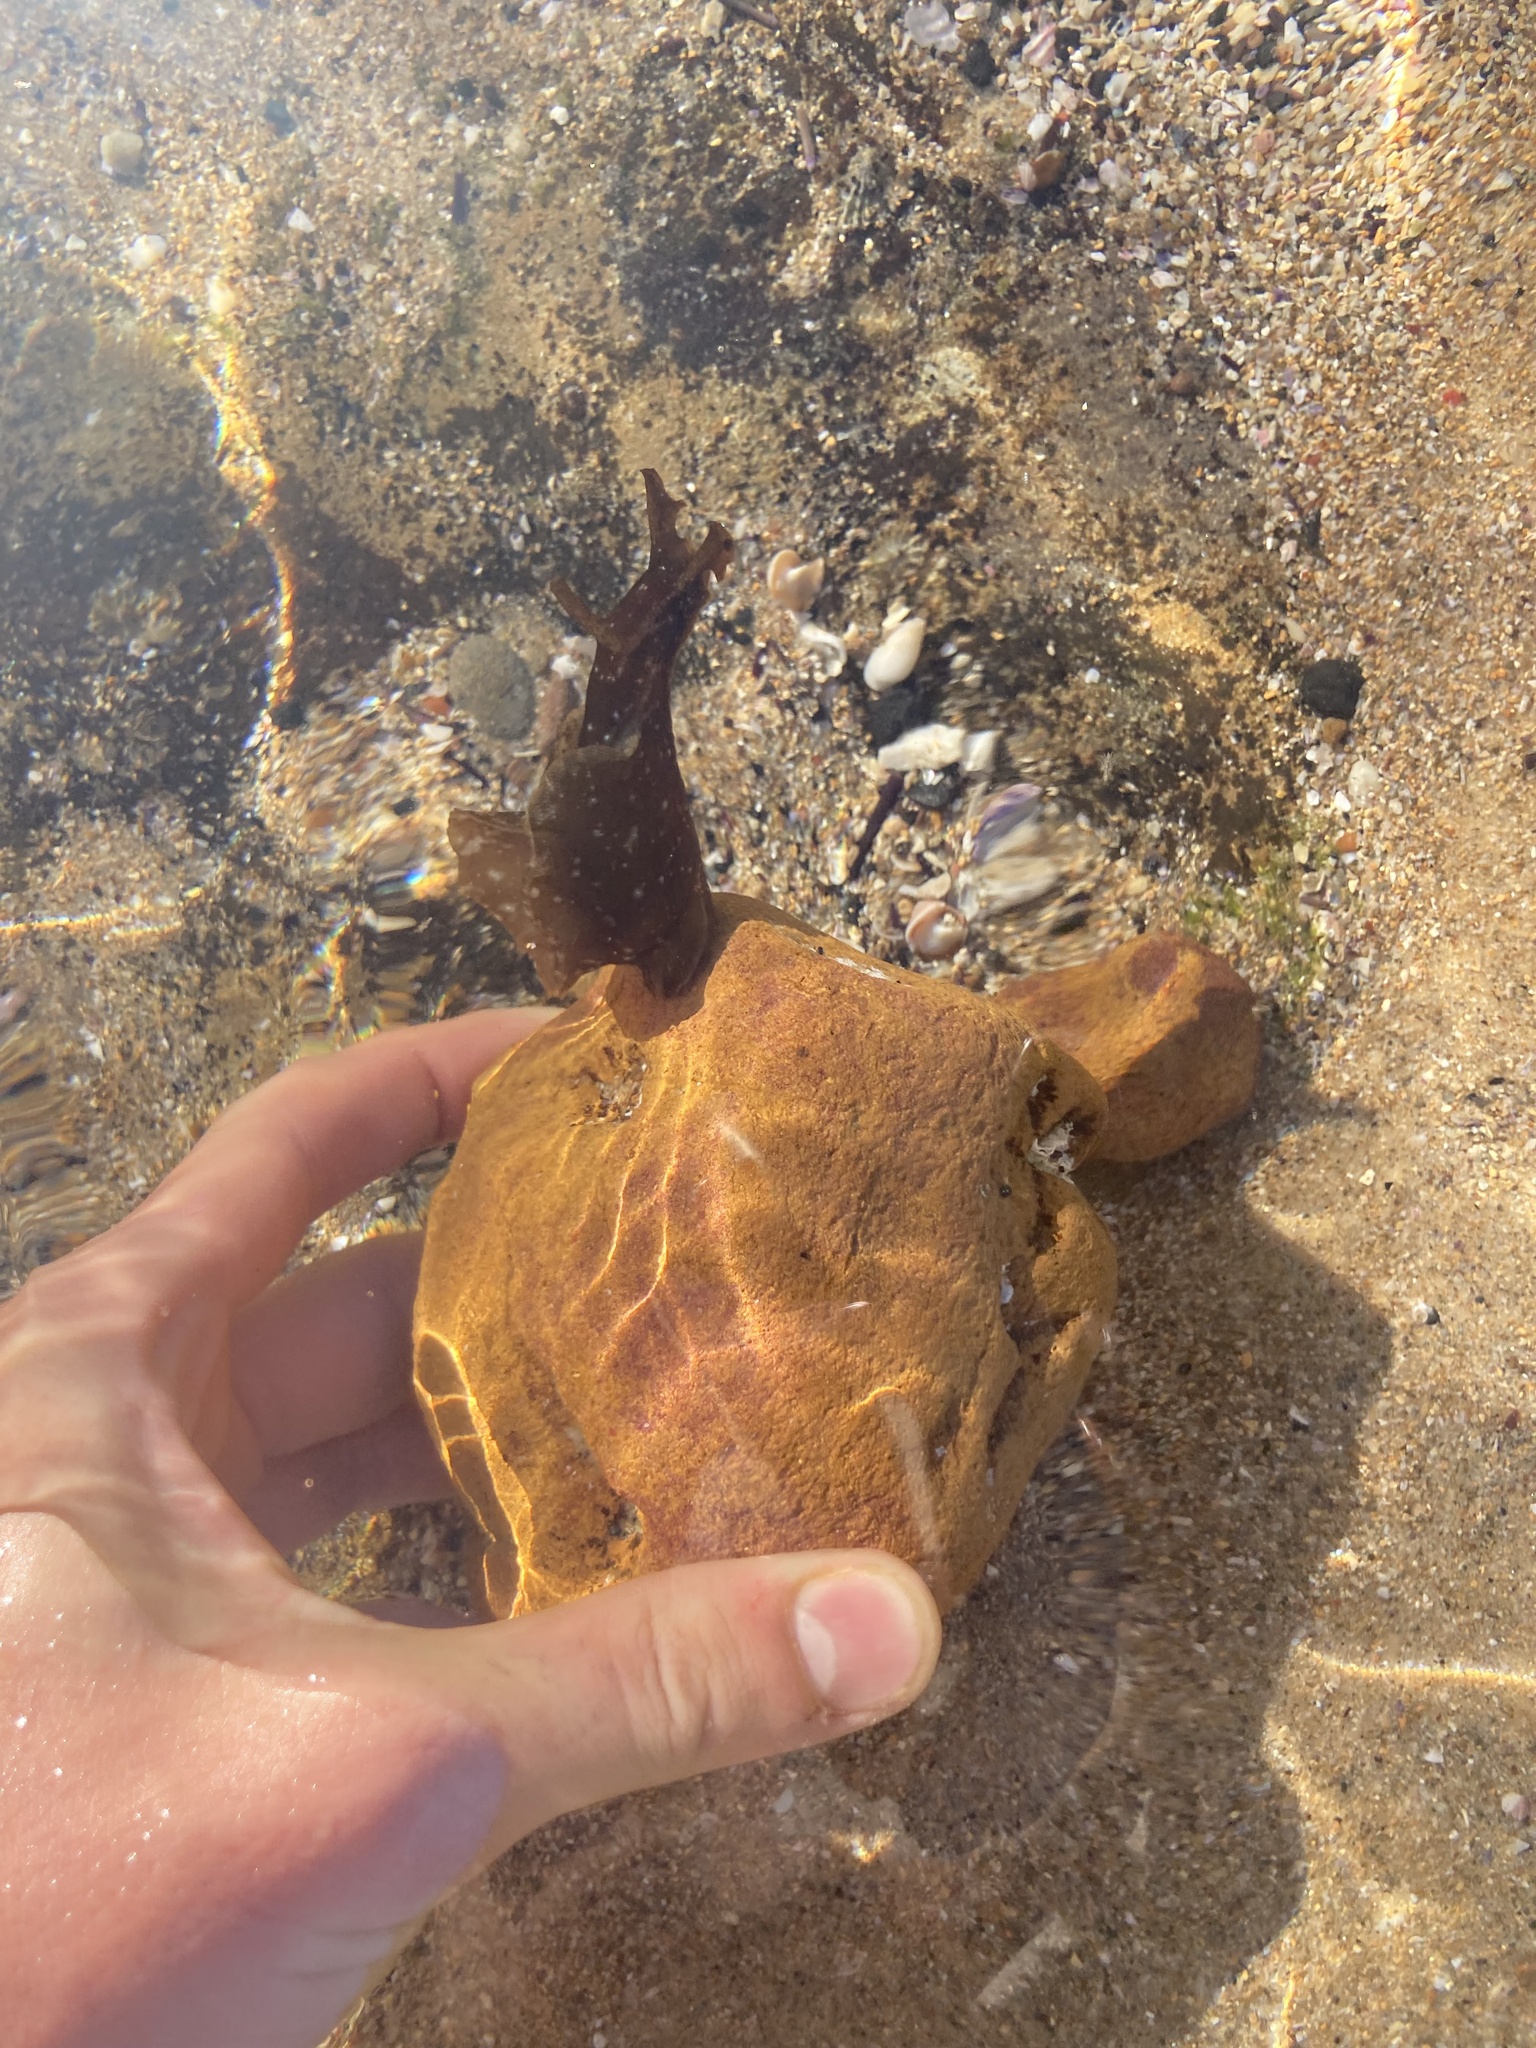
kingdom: Animalia
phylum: Mollusca
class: Gastropoda
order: Aplysiida
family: Aplysiidae
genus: Aplysia
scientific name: Aplysia juliana
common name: Walking sea hare
